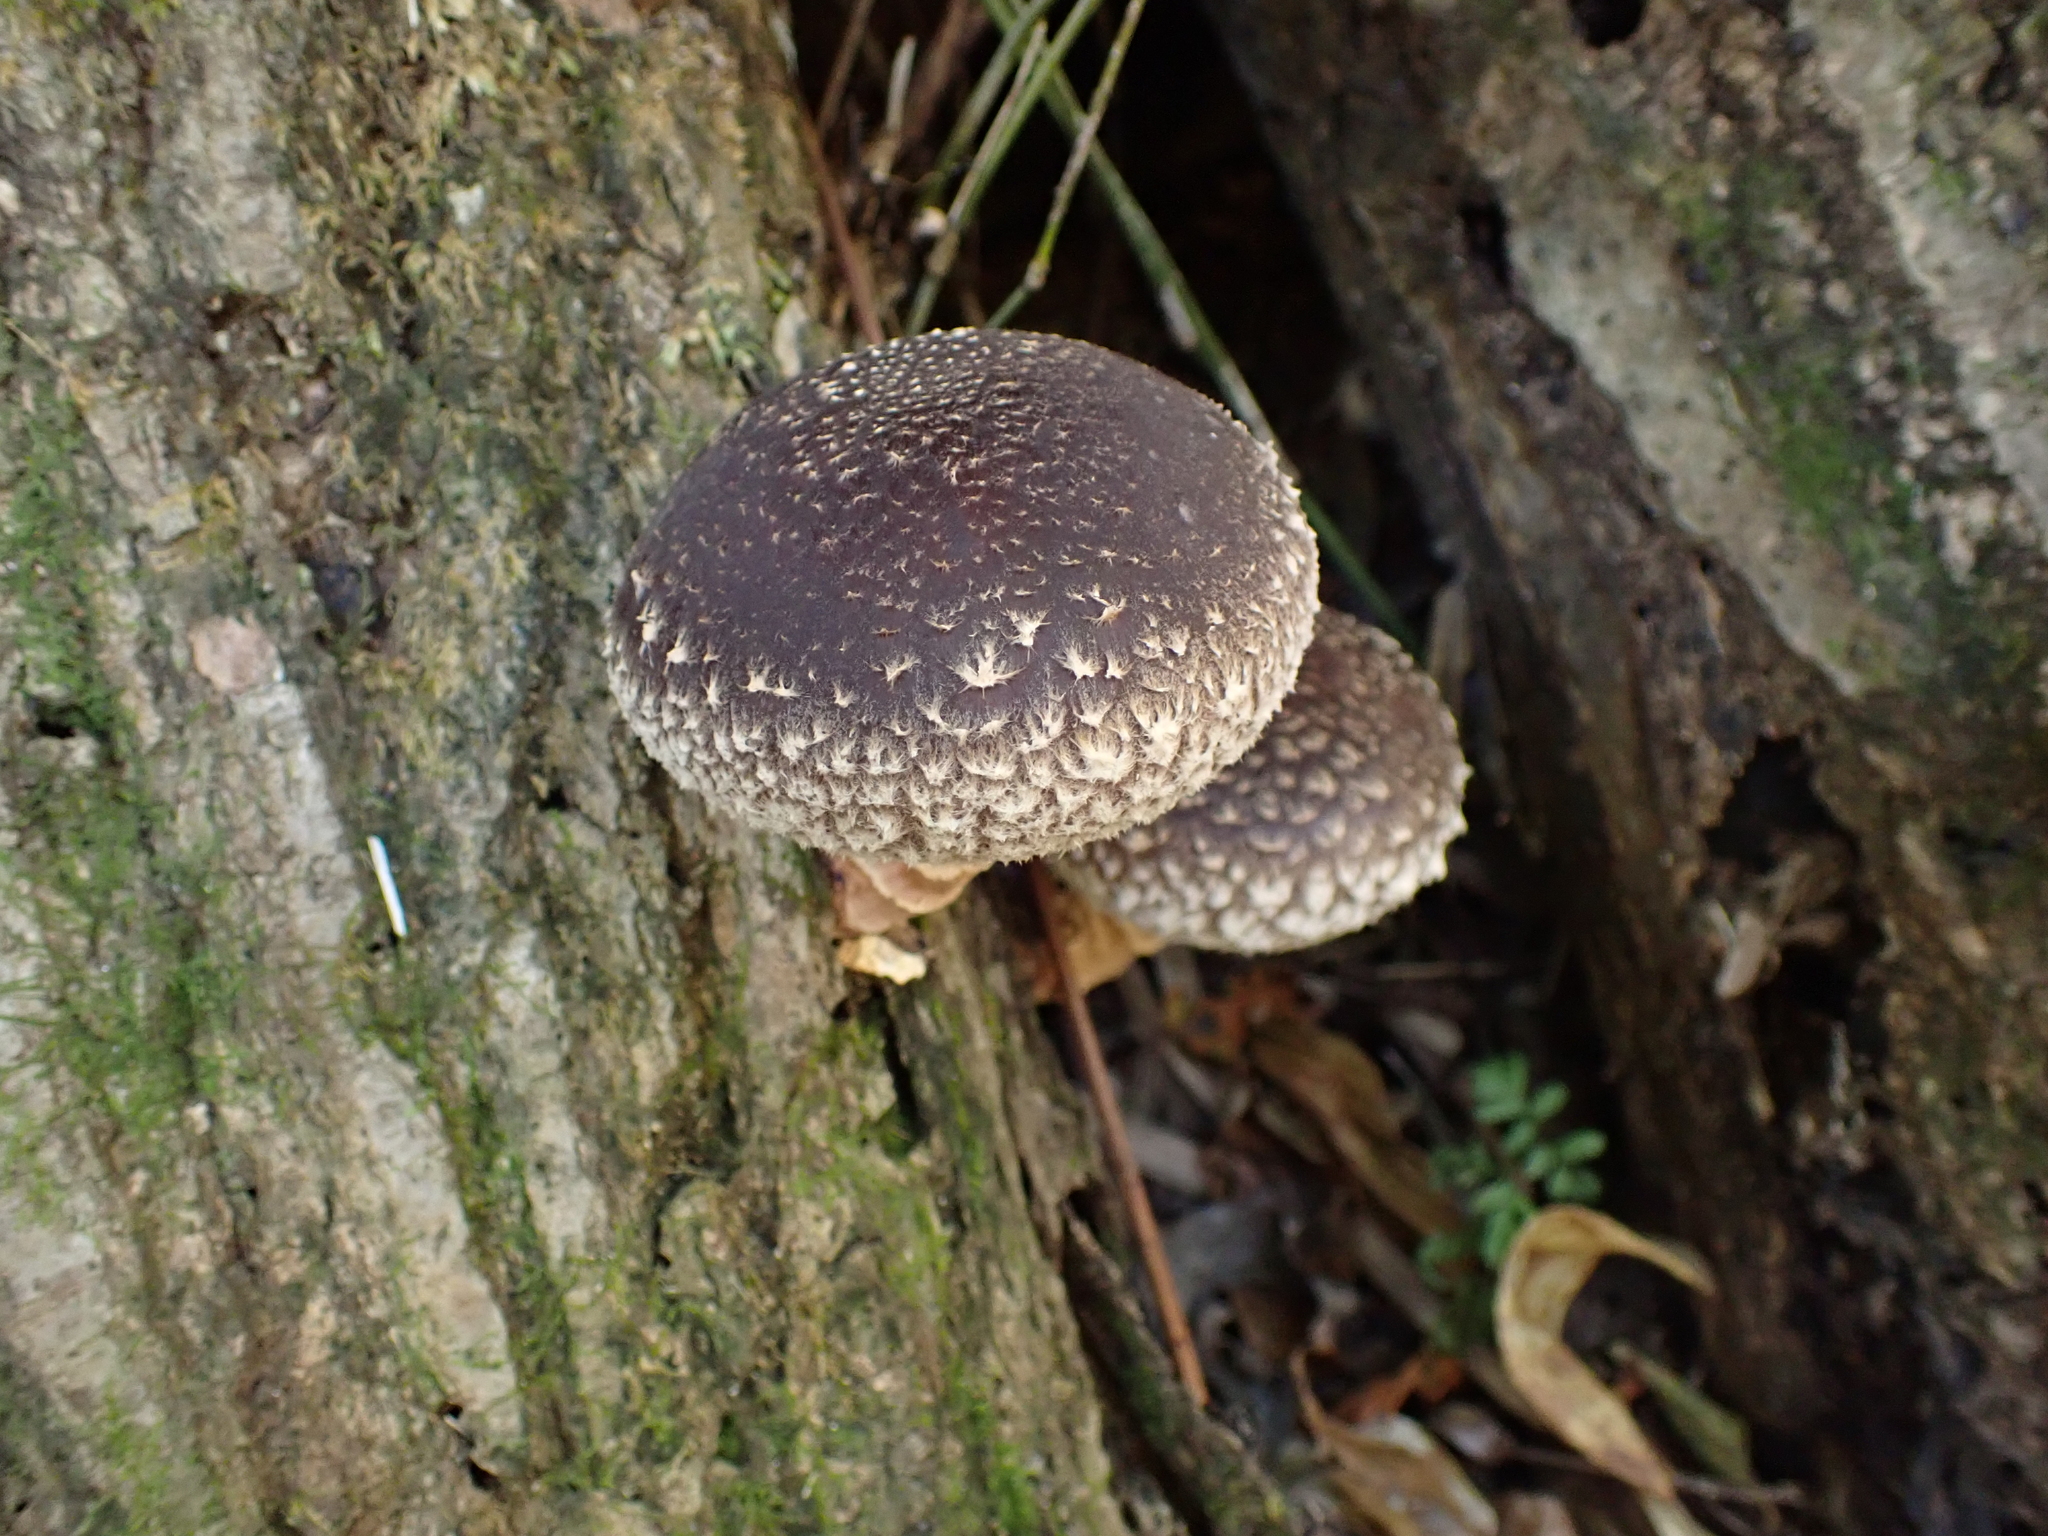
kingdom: Fungi
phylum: Basidiomycota
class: Agaricomycetes
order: Agaricales
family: Omphalotaceae
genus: Lentinula
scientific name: Lentinula edodes
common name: Shiitake
